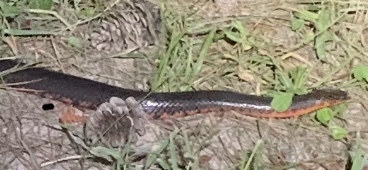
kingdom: Animalia
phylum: Chordata
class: Squamata
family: Colubridae
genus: Farancia
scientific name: Farancia abacura
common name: Mud snake
